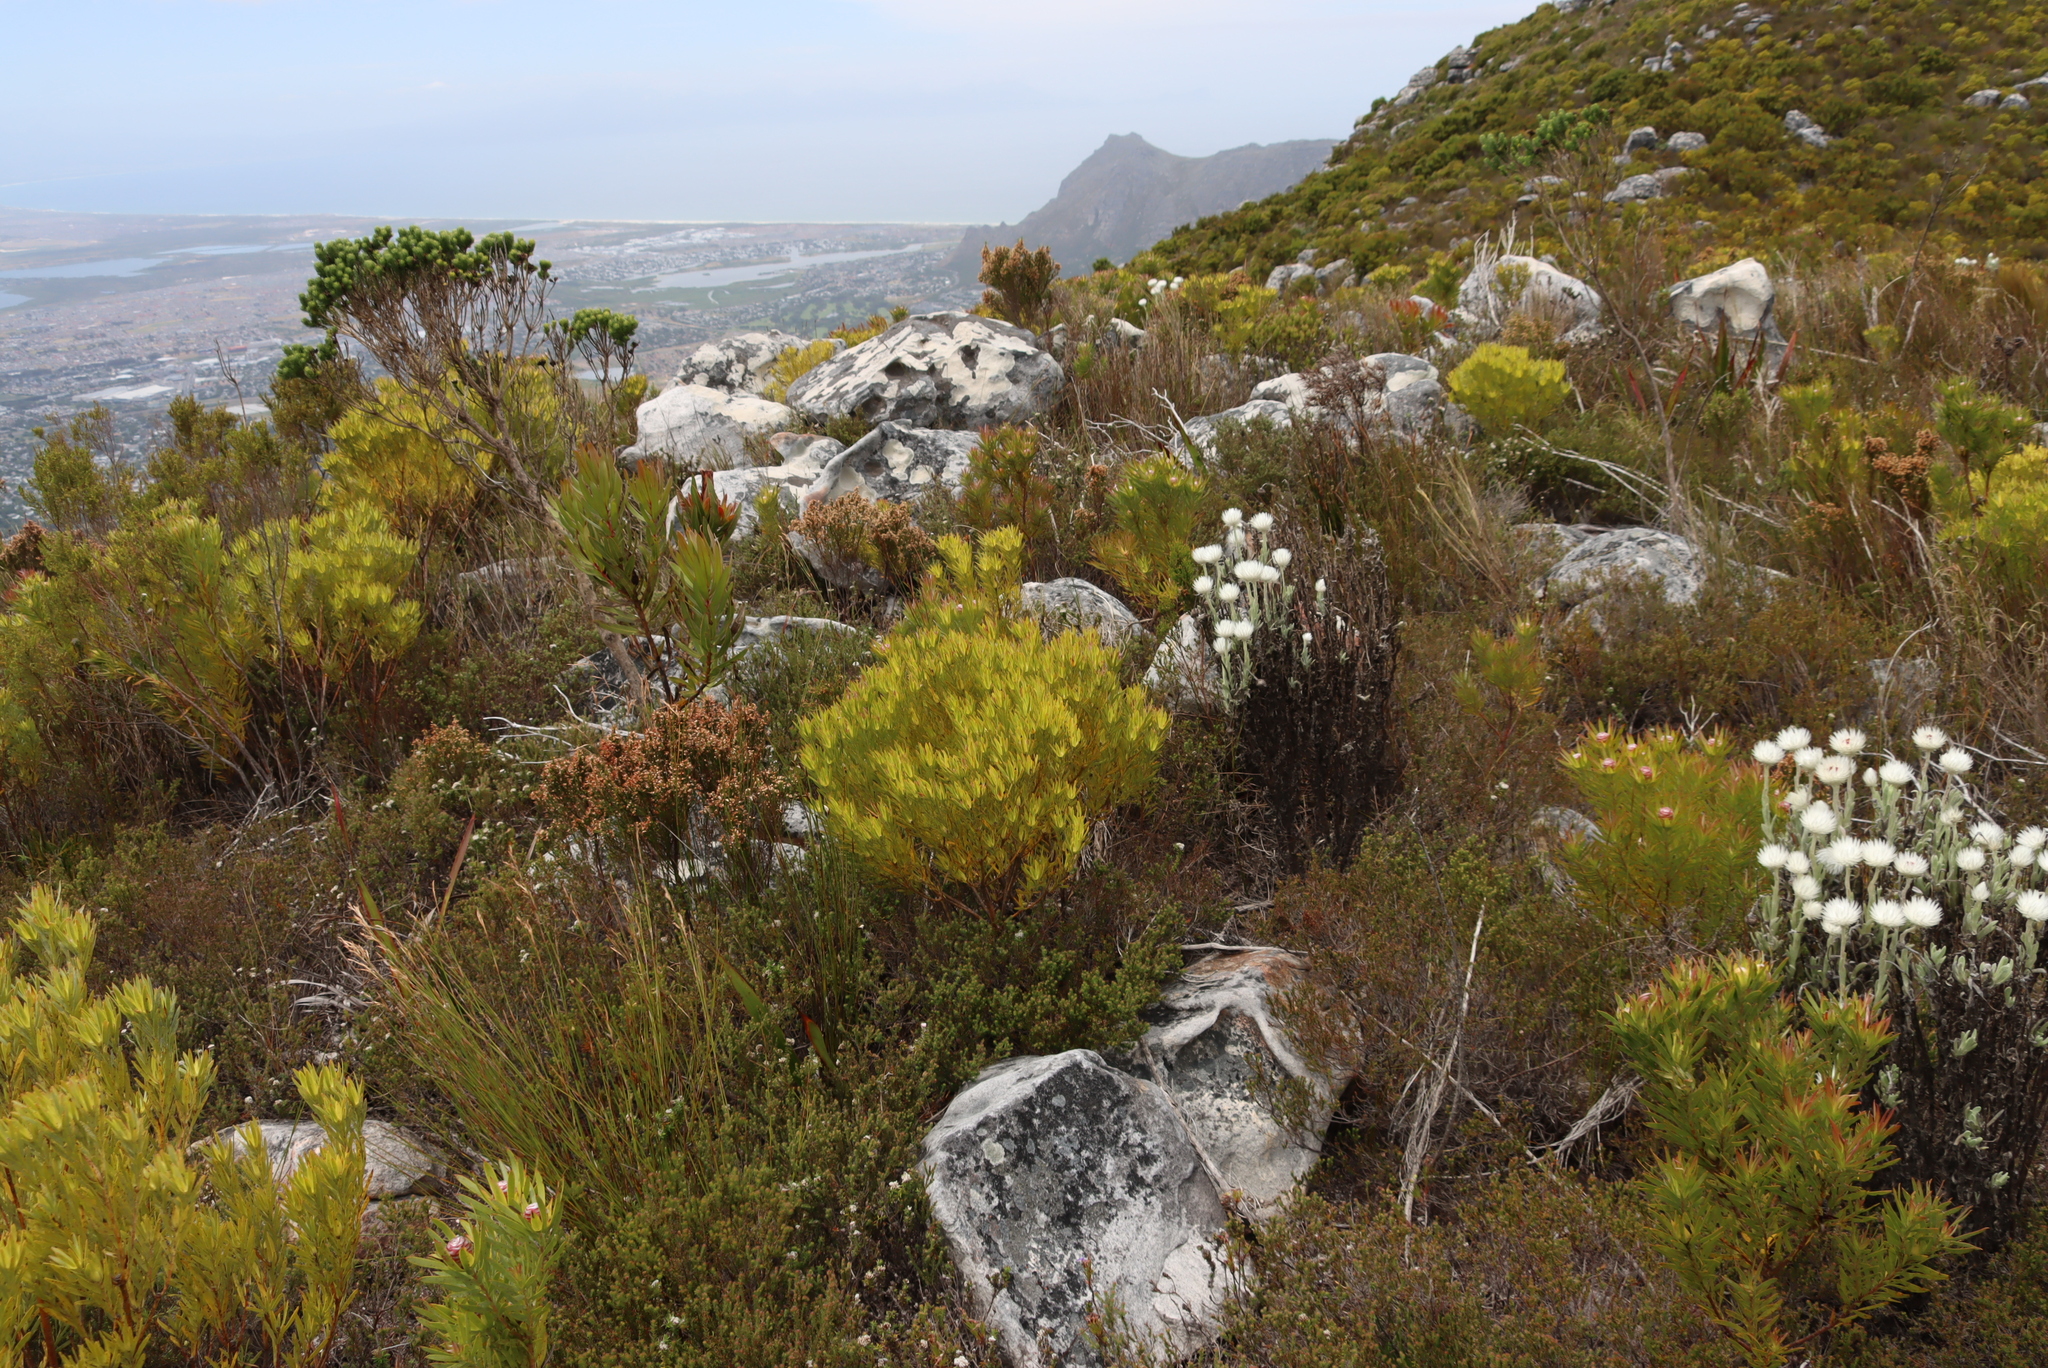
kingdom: Plantae
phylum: Tracheophyta
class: Magnoliopsida
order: Proteales
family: Proteaceae
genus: Leucadendron
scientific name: Leucadendron xanthoconus
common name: Sickle-leaf conebush
